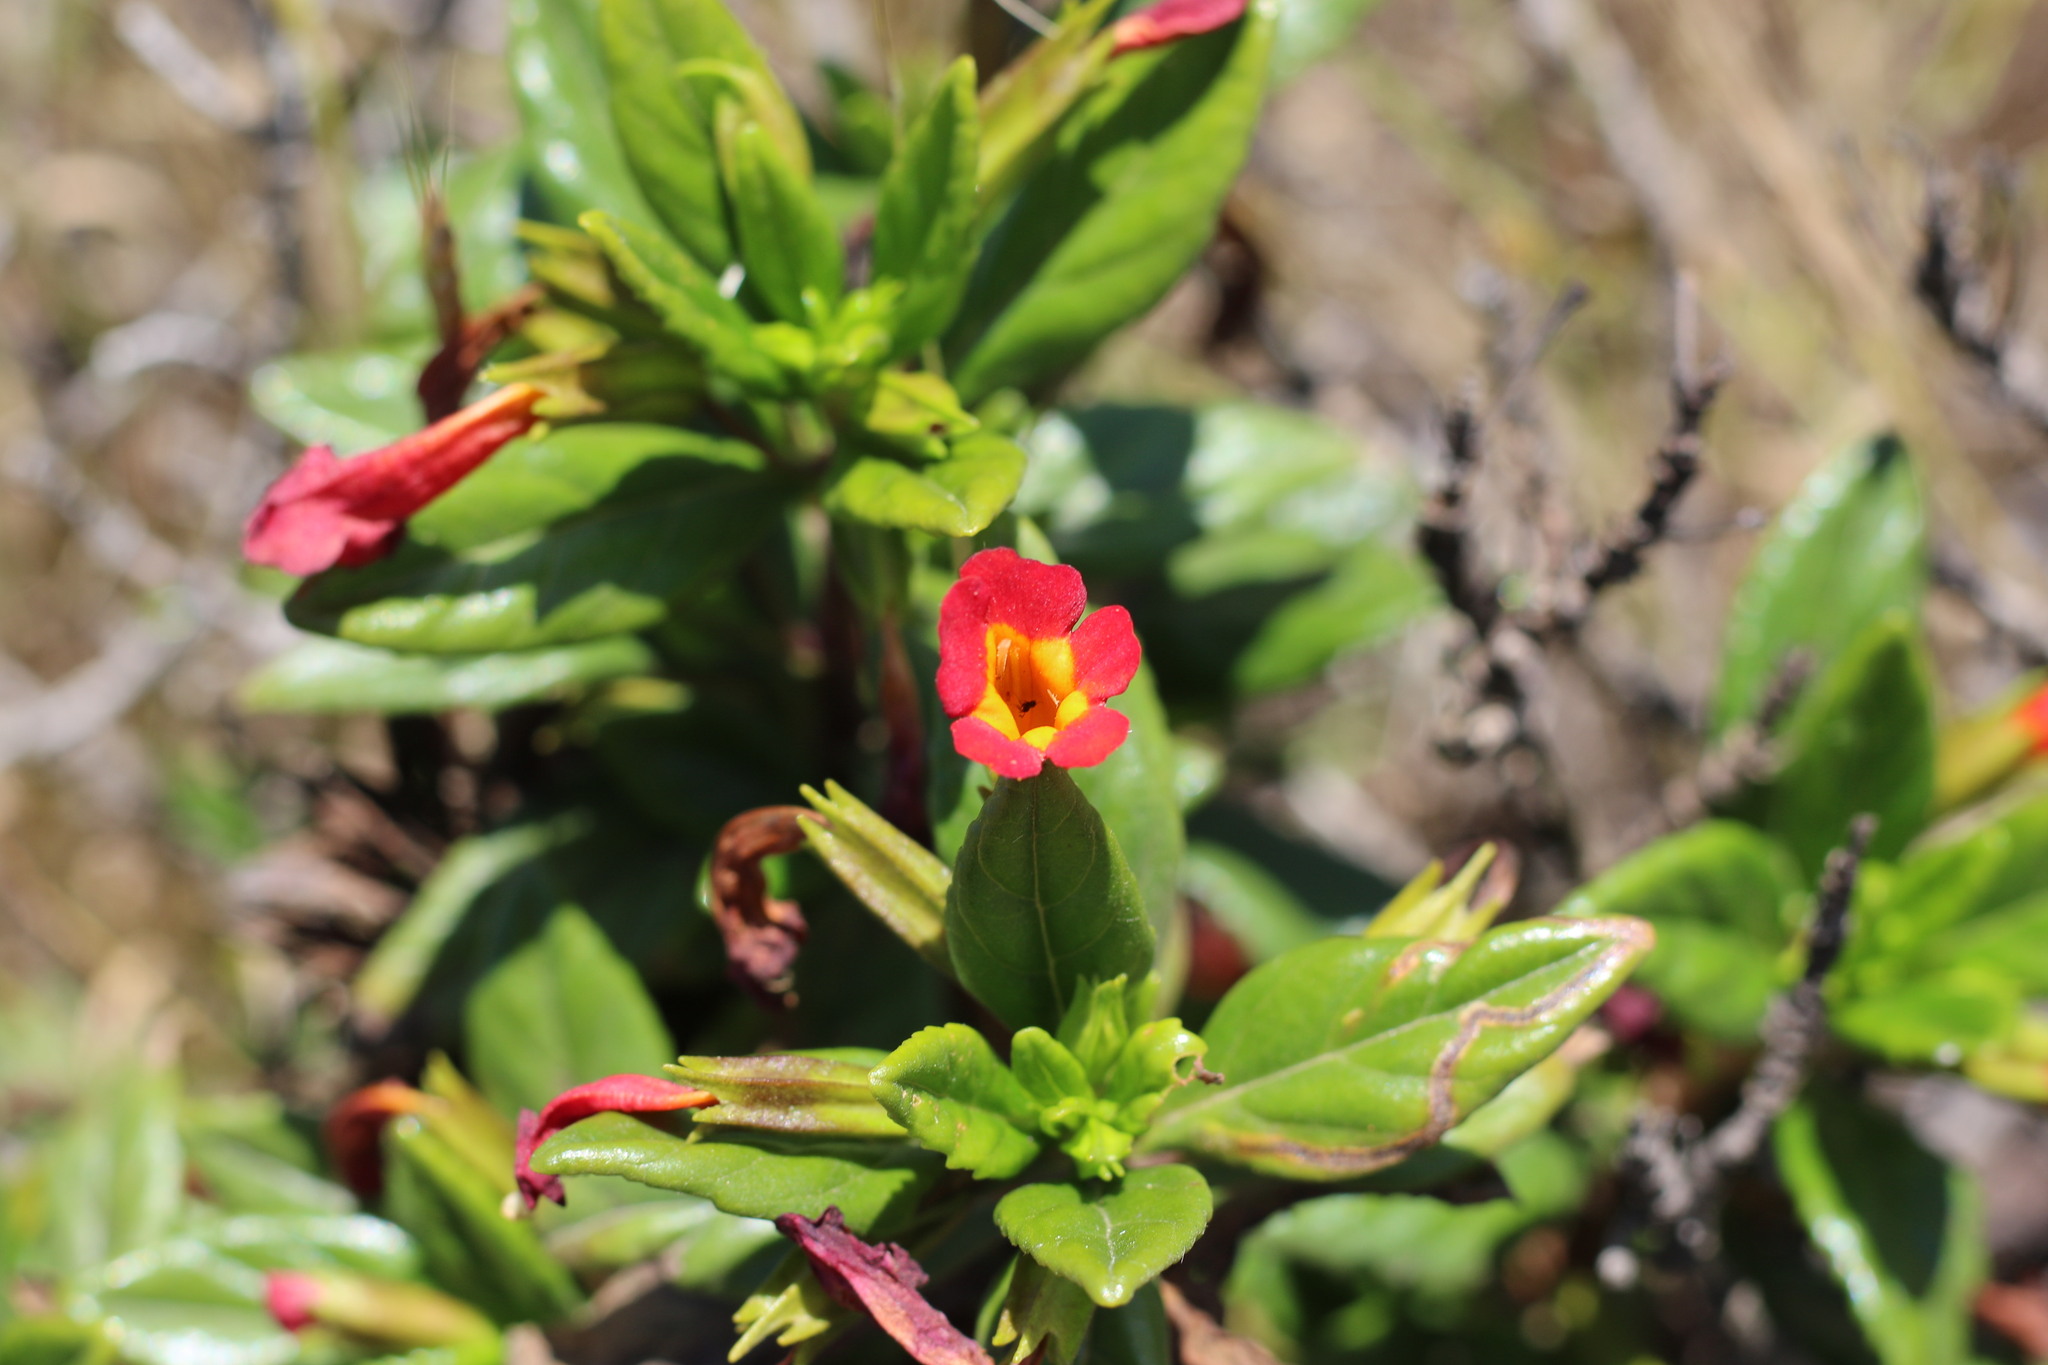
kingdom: Plantae
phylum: Tracheophyta
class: Magnoliopsida
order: Lamiales
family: Phrymaceae
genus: Diplacus
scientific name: Diplacus parviflorus
